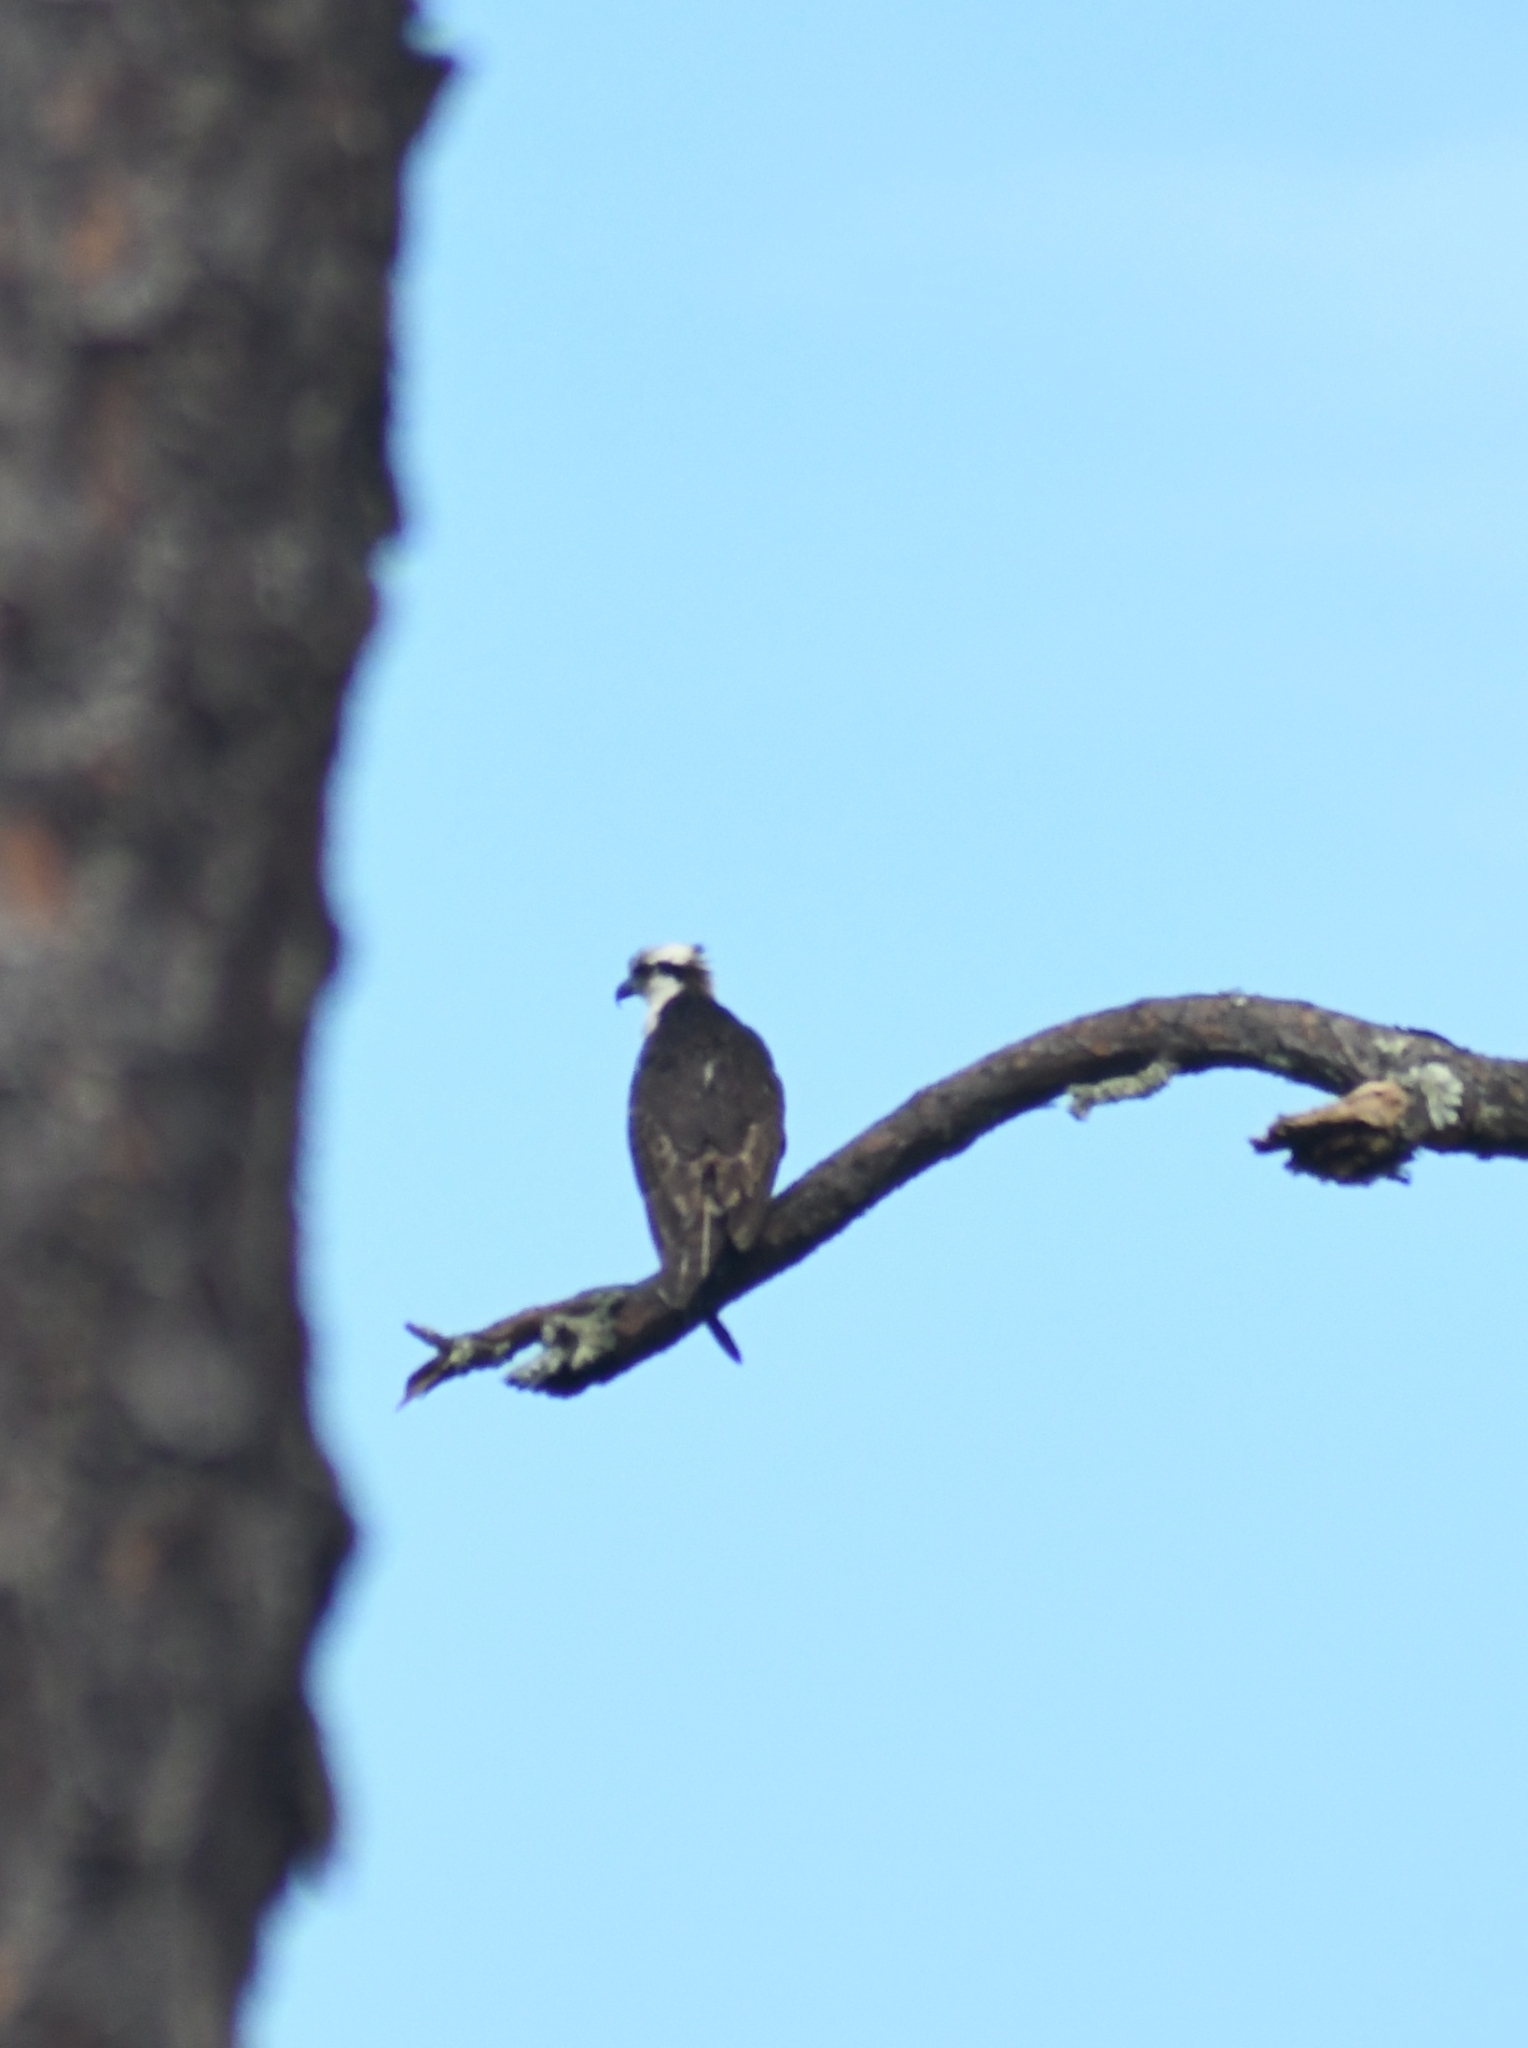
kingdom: Animalia
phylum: Chordata
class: Aves
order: Accipitriformes
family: Pandionidae
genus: Pandion
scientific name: Pandion haliaetus
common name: Osprey
